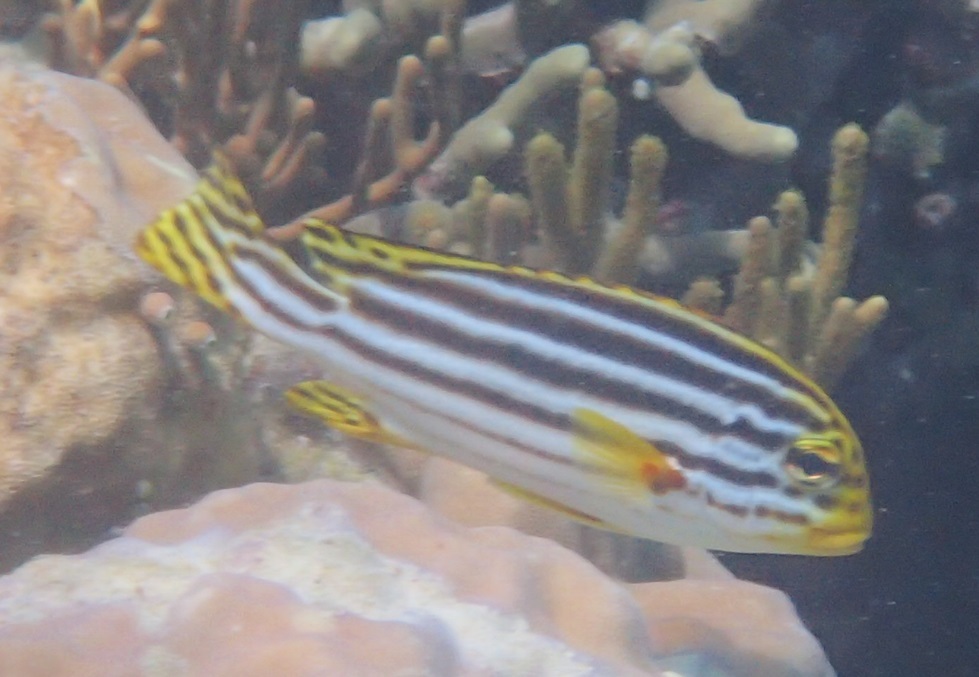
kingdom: Animalia
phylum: Chordata
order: Perciformes
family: Haemulidae
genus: Plectorhinchus
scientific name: Plectorhinchus lineatus
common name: Goldman's sweetlips
